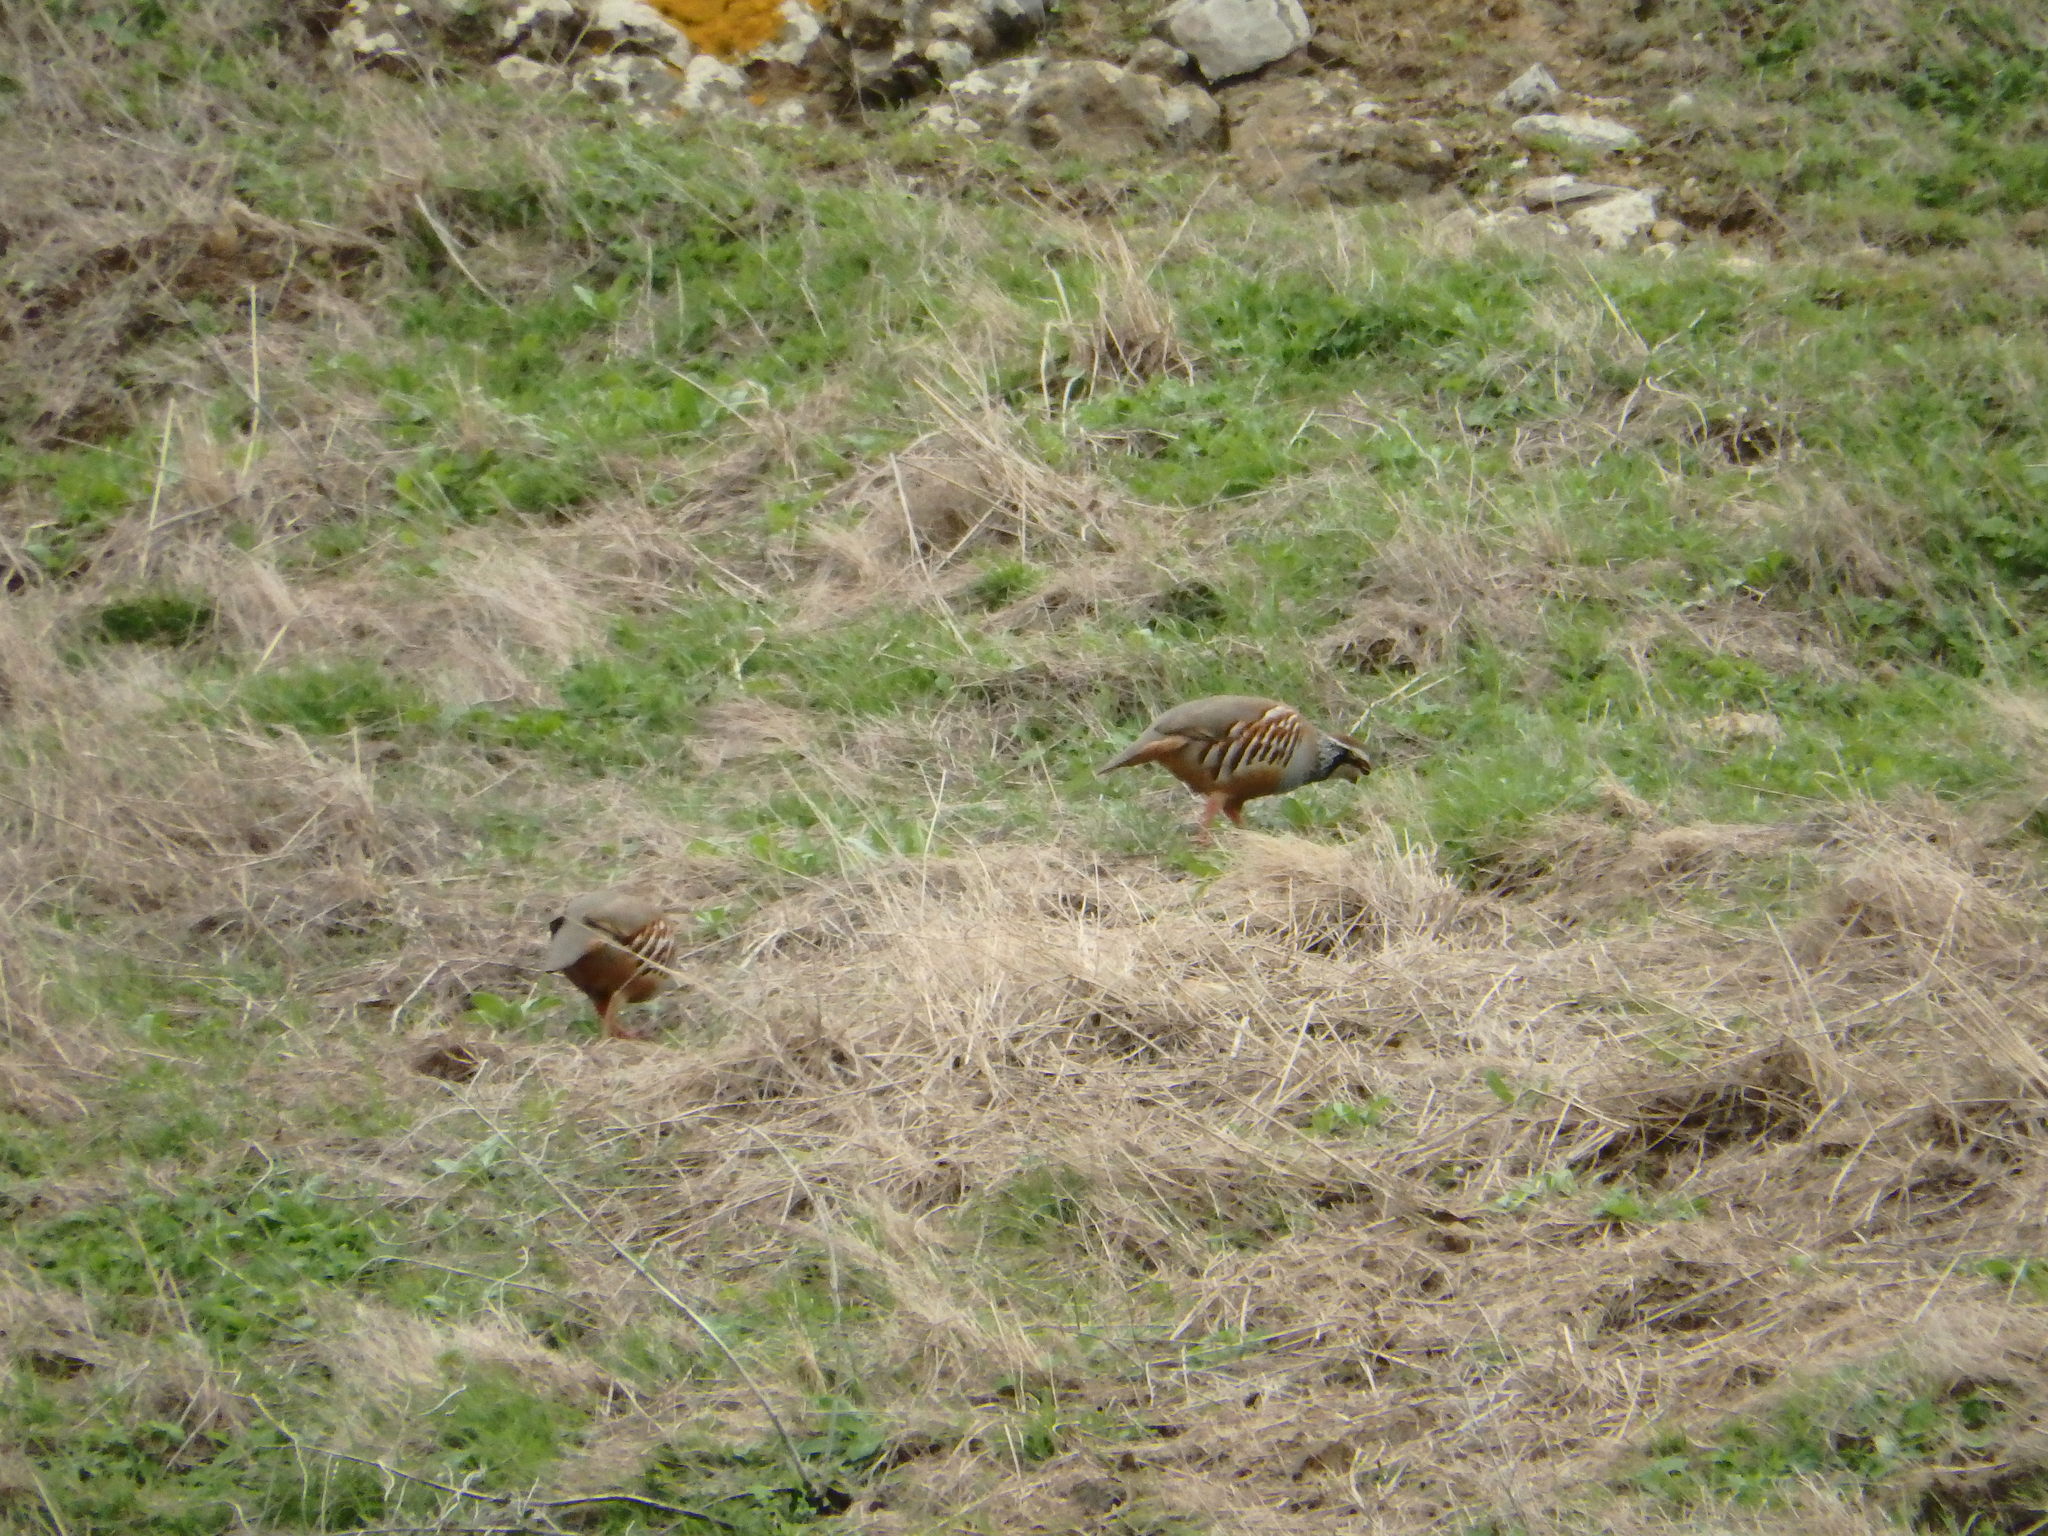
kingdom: Animalia
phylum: Chordata
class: Aves
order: Galliformes
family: Phasianidae
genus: Alectoris
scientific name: Alectoris rufa
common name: Red-legged partridge
